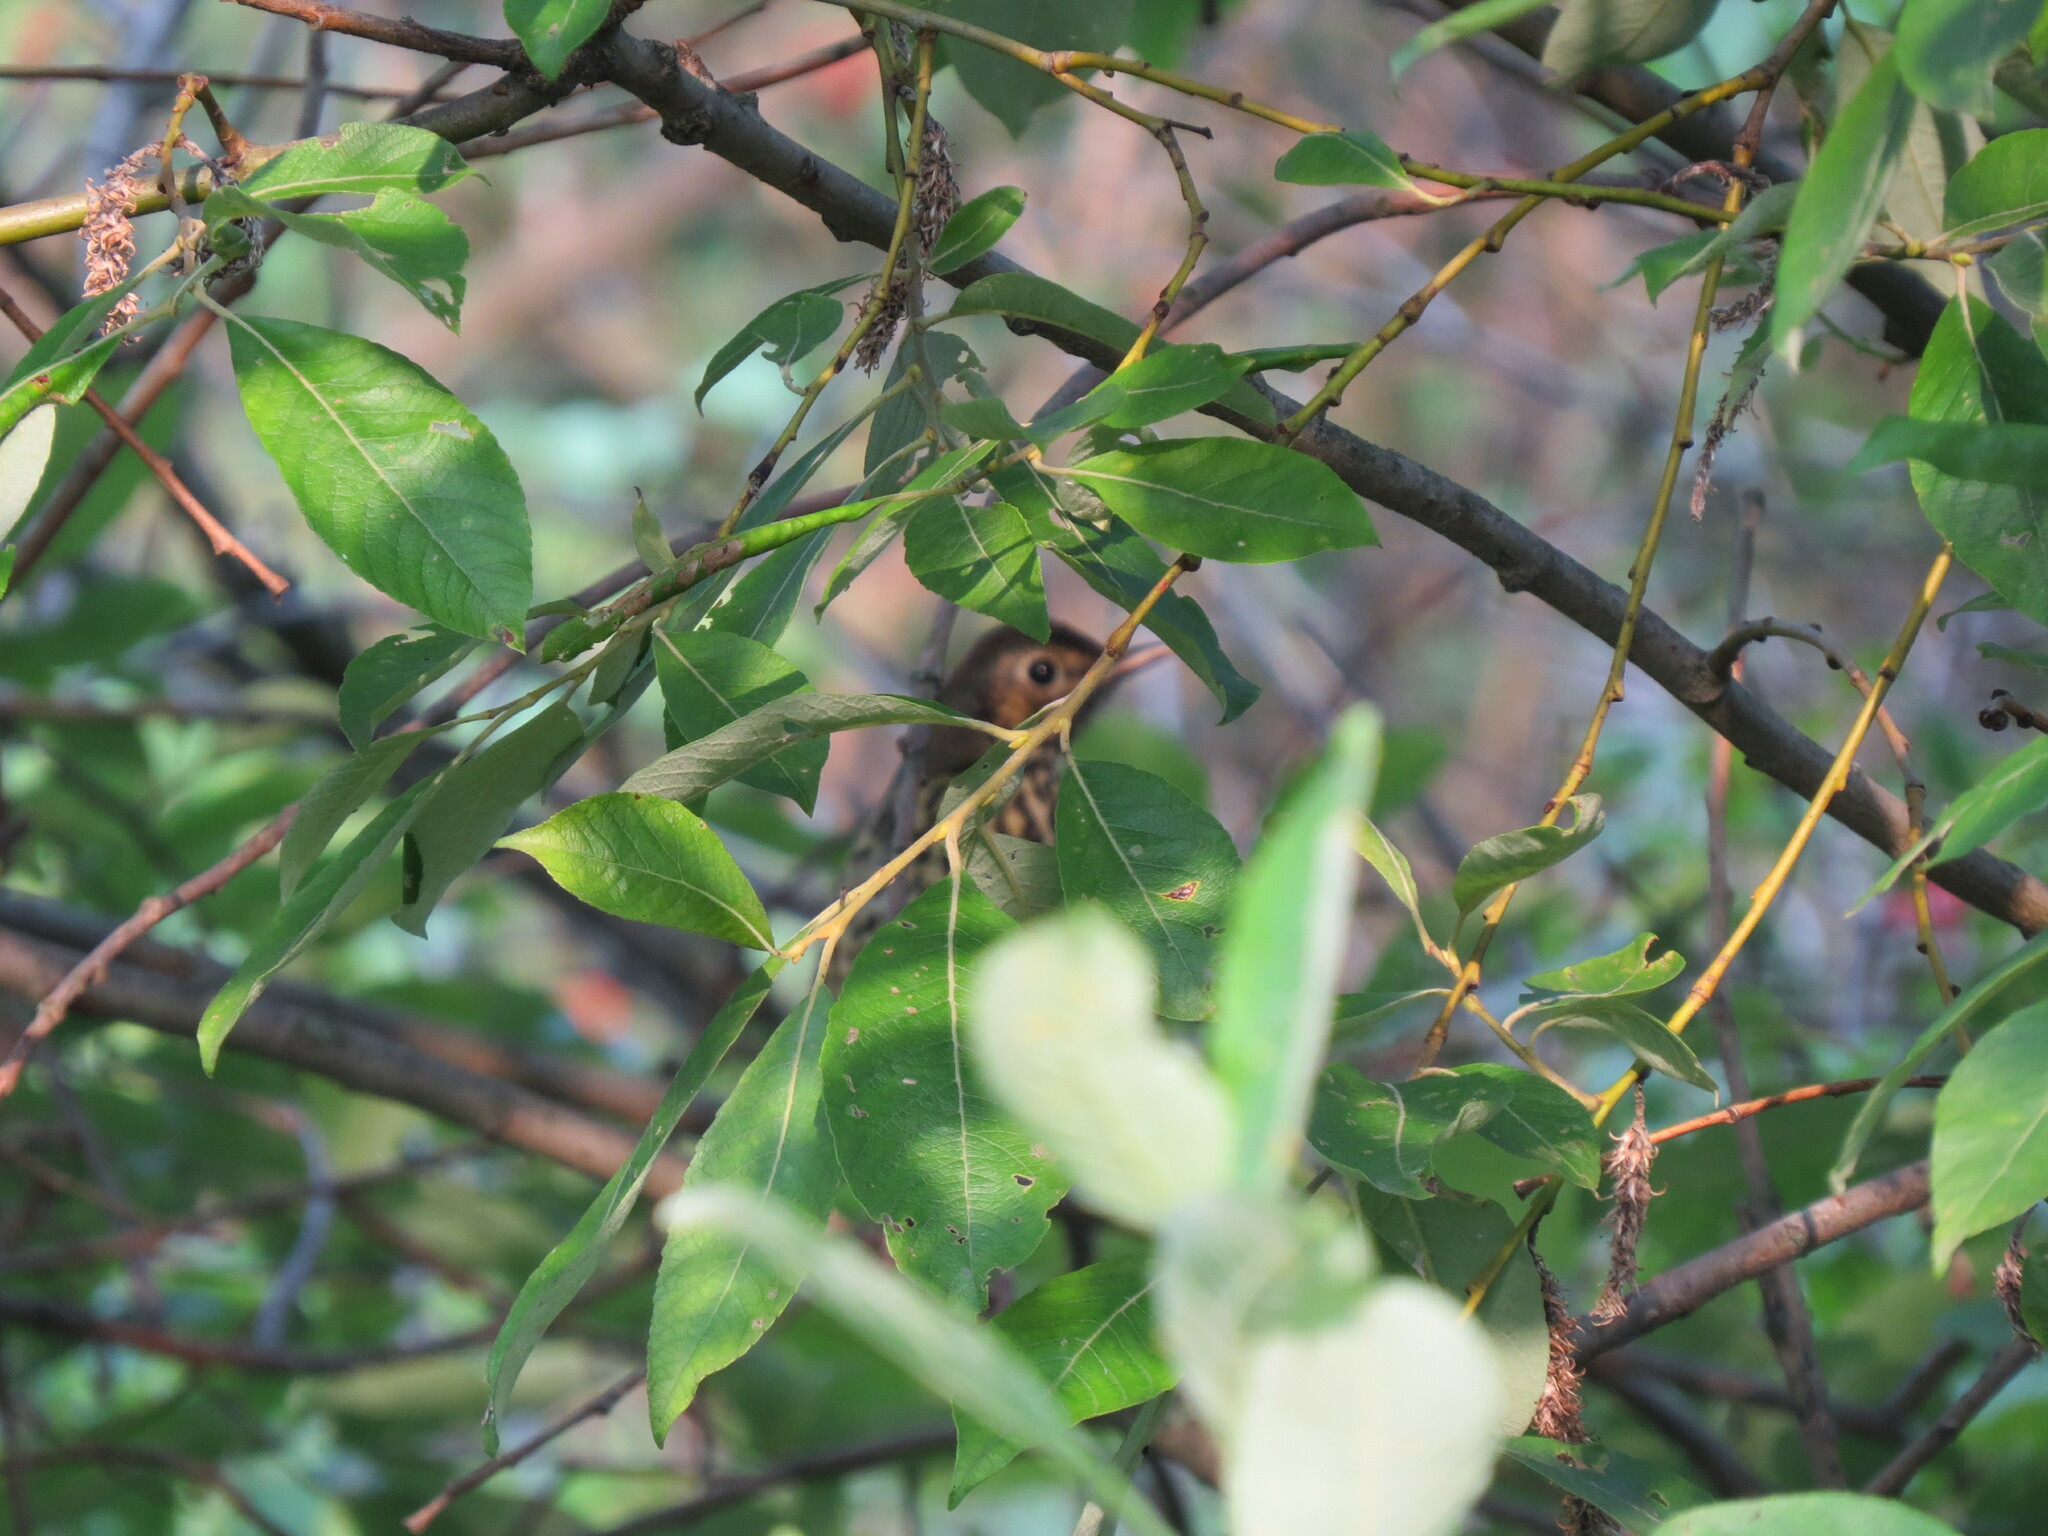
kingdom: Animalia
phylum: Chordata
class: Aves
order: Passeriformes
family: Turdidae
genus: Turdus
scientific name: Turdus pilaris
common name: Fieldfare
